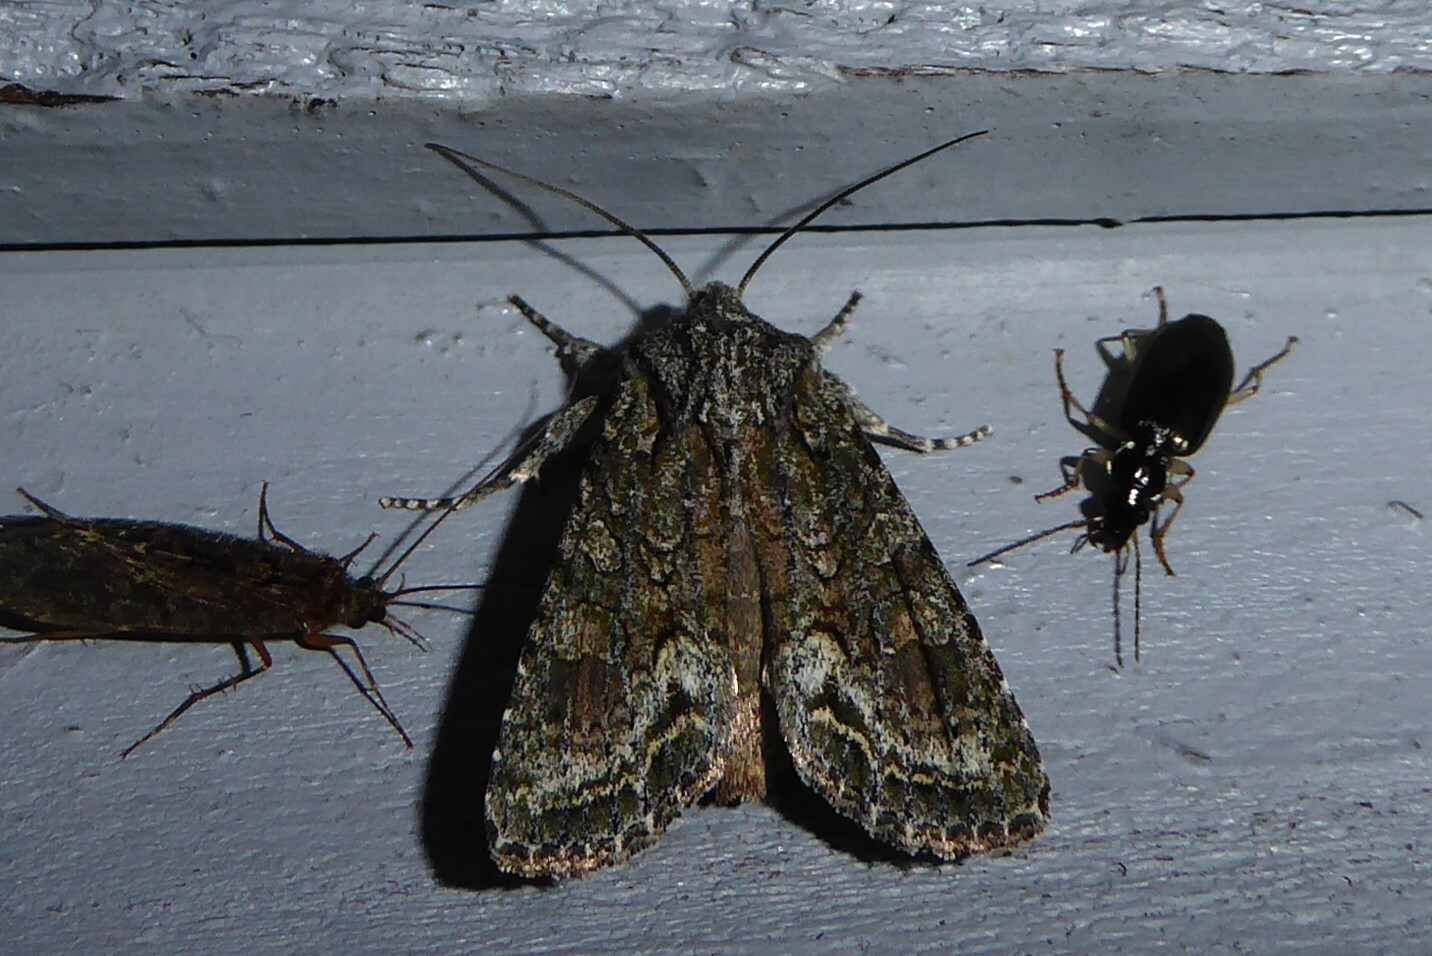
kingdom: Animalia
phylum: Arthropoda
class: Insecta
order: Lepidoptera
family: Noctuidae
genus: Ichneutica
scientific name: Ichneutica mutans
